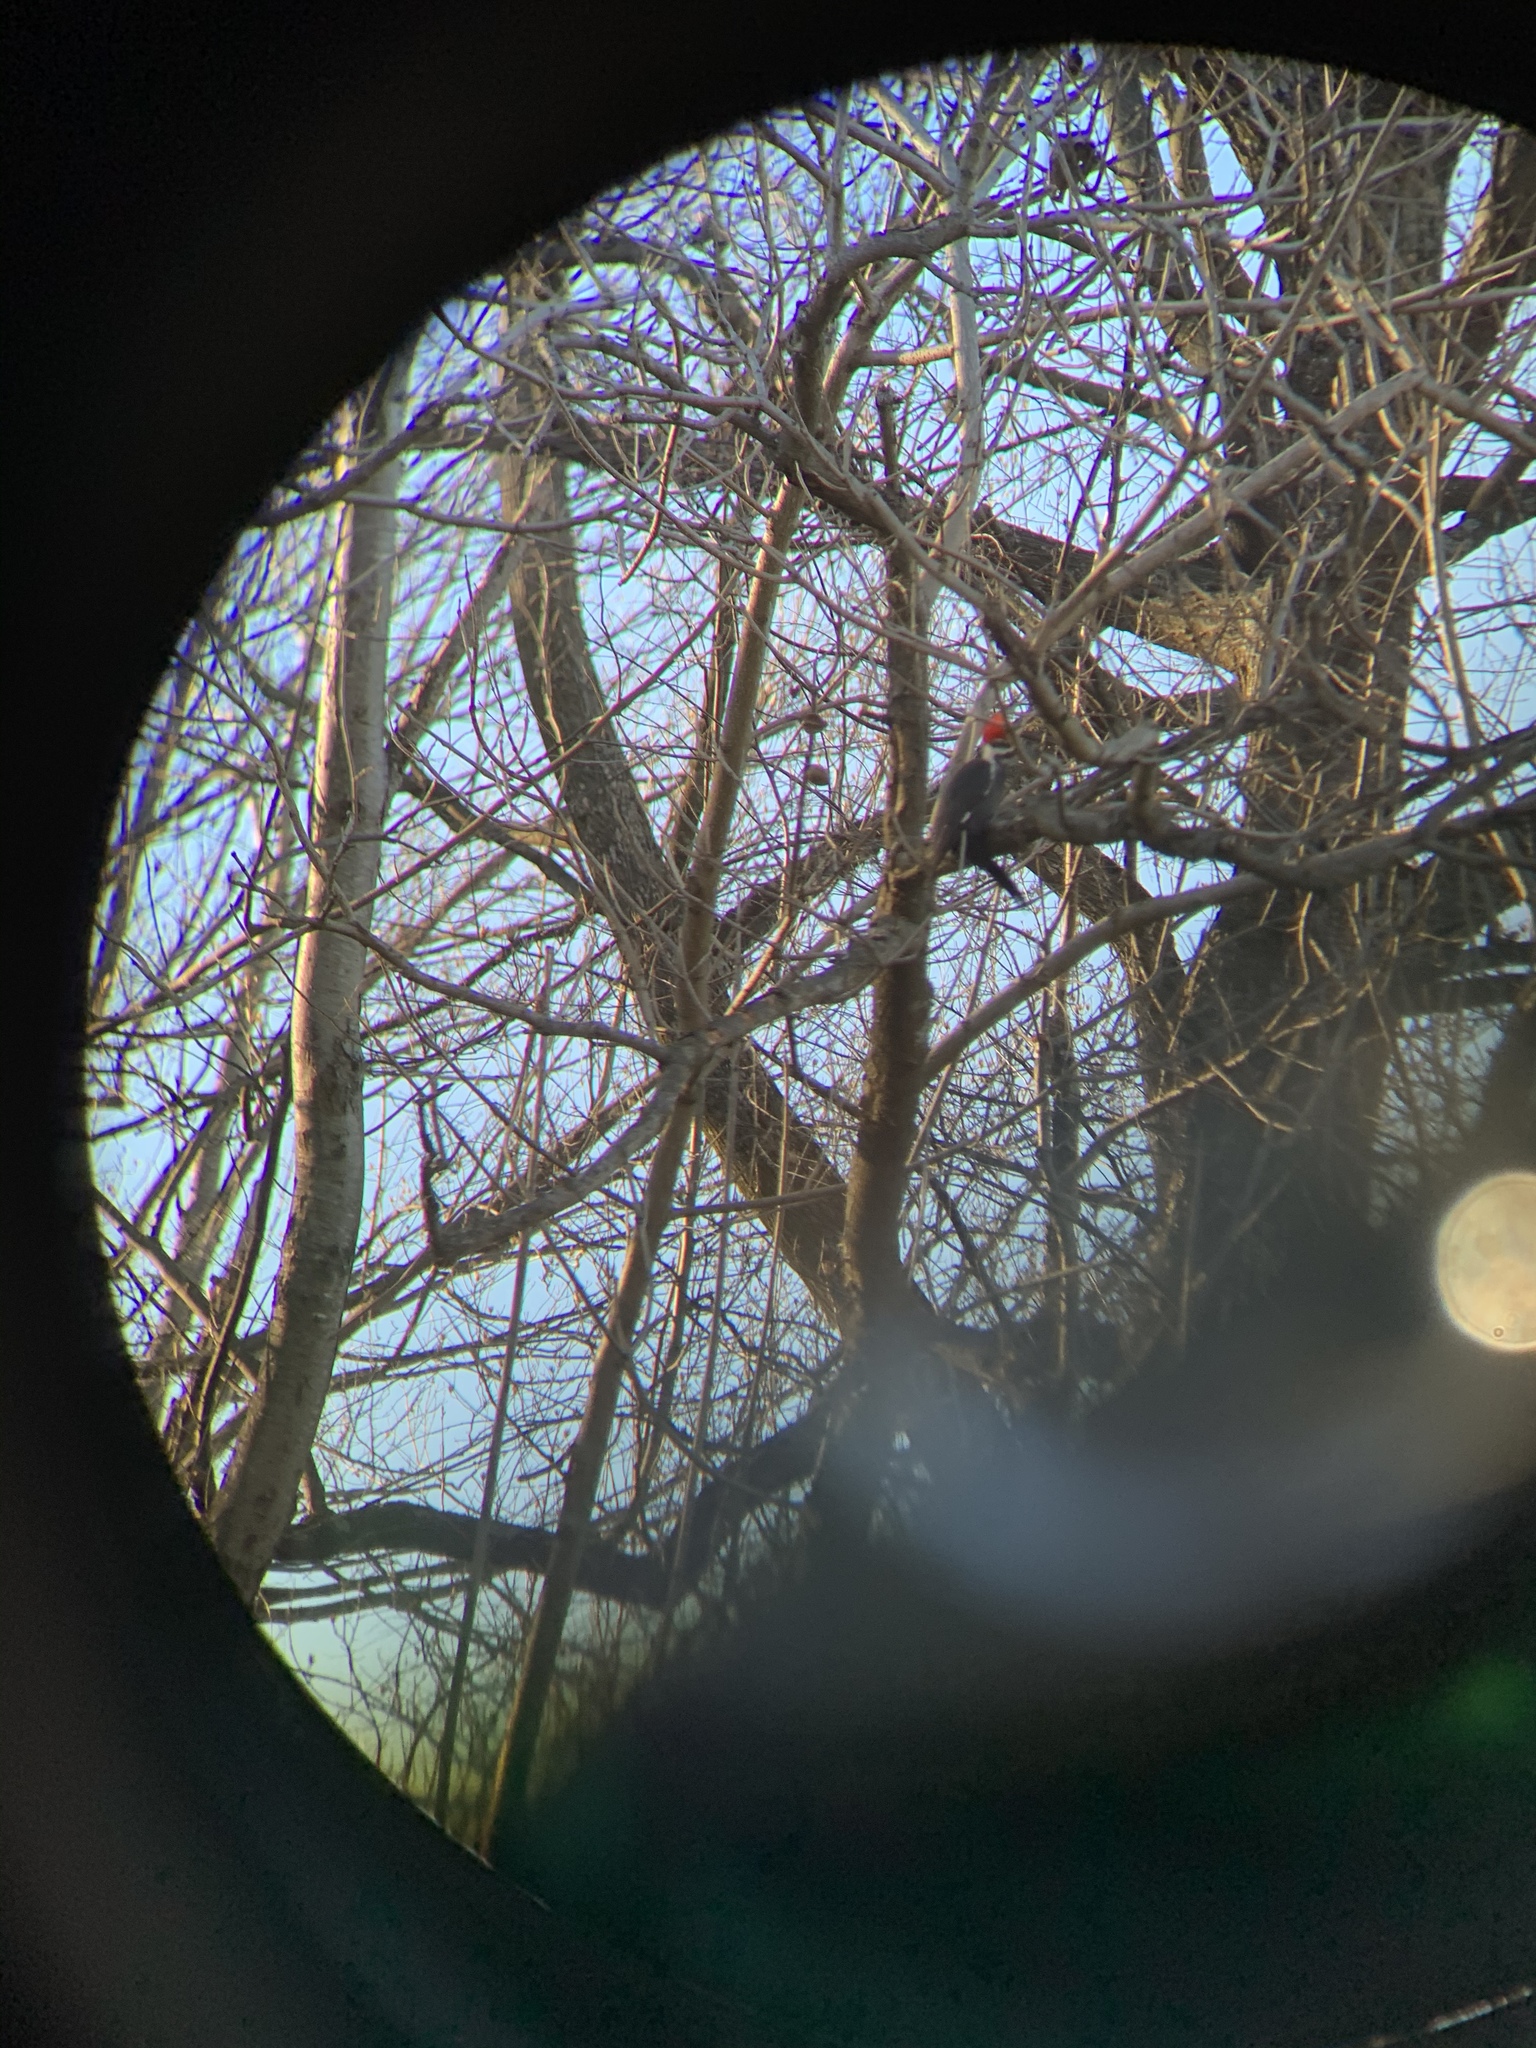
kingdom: Animalia
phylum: Chordata
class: Aves
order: Piciformes
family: Picidae
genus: Dryocopus
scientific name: Dryocopus pileatus
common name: Pileated woodpecker
